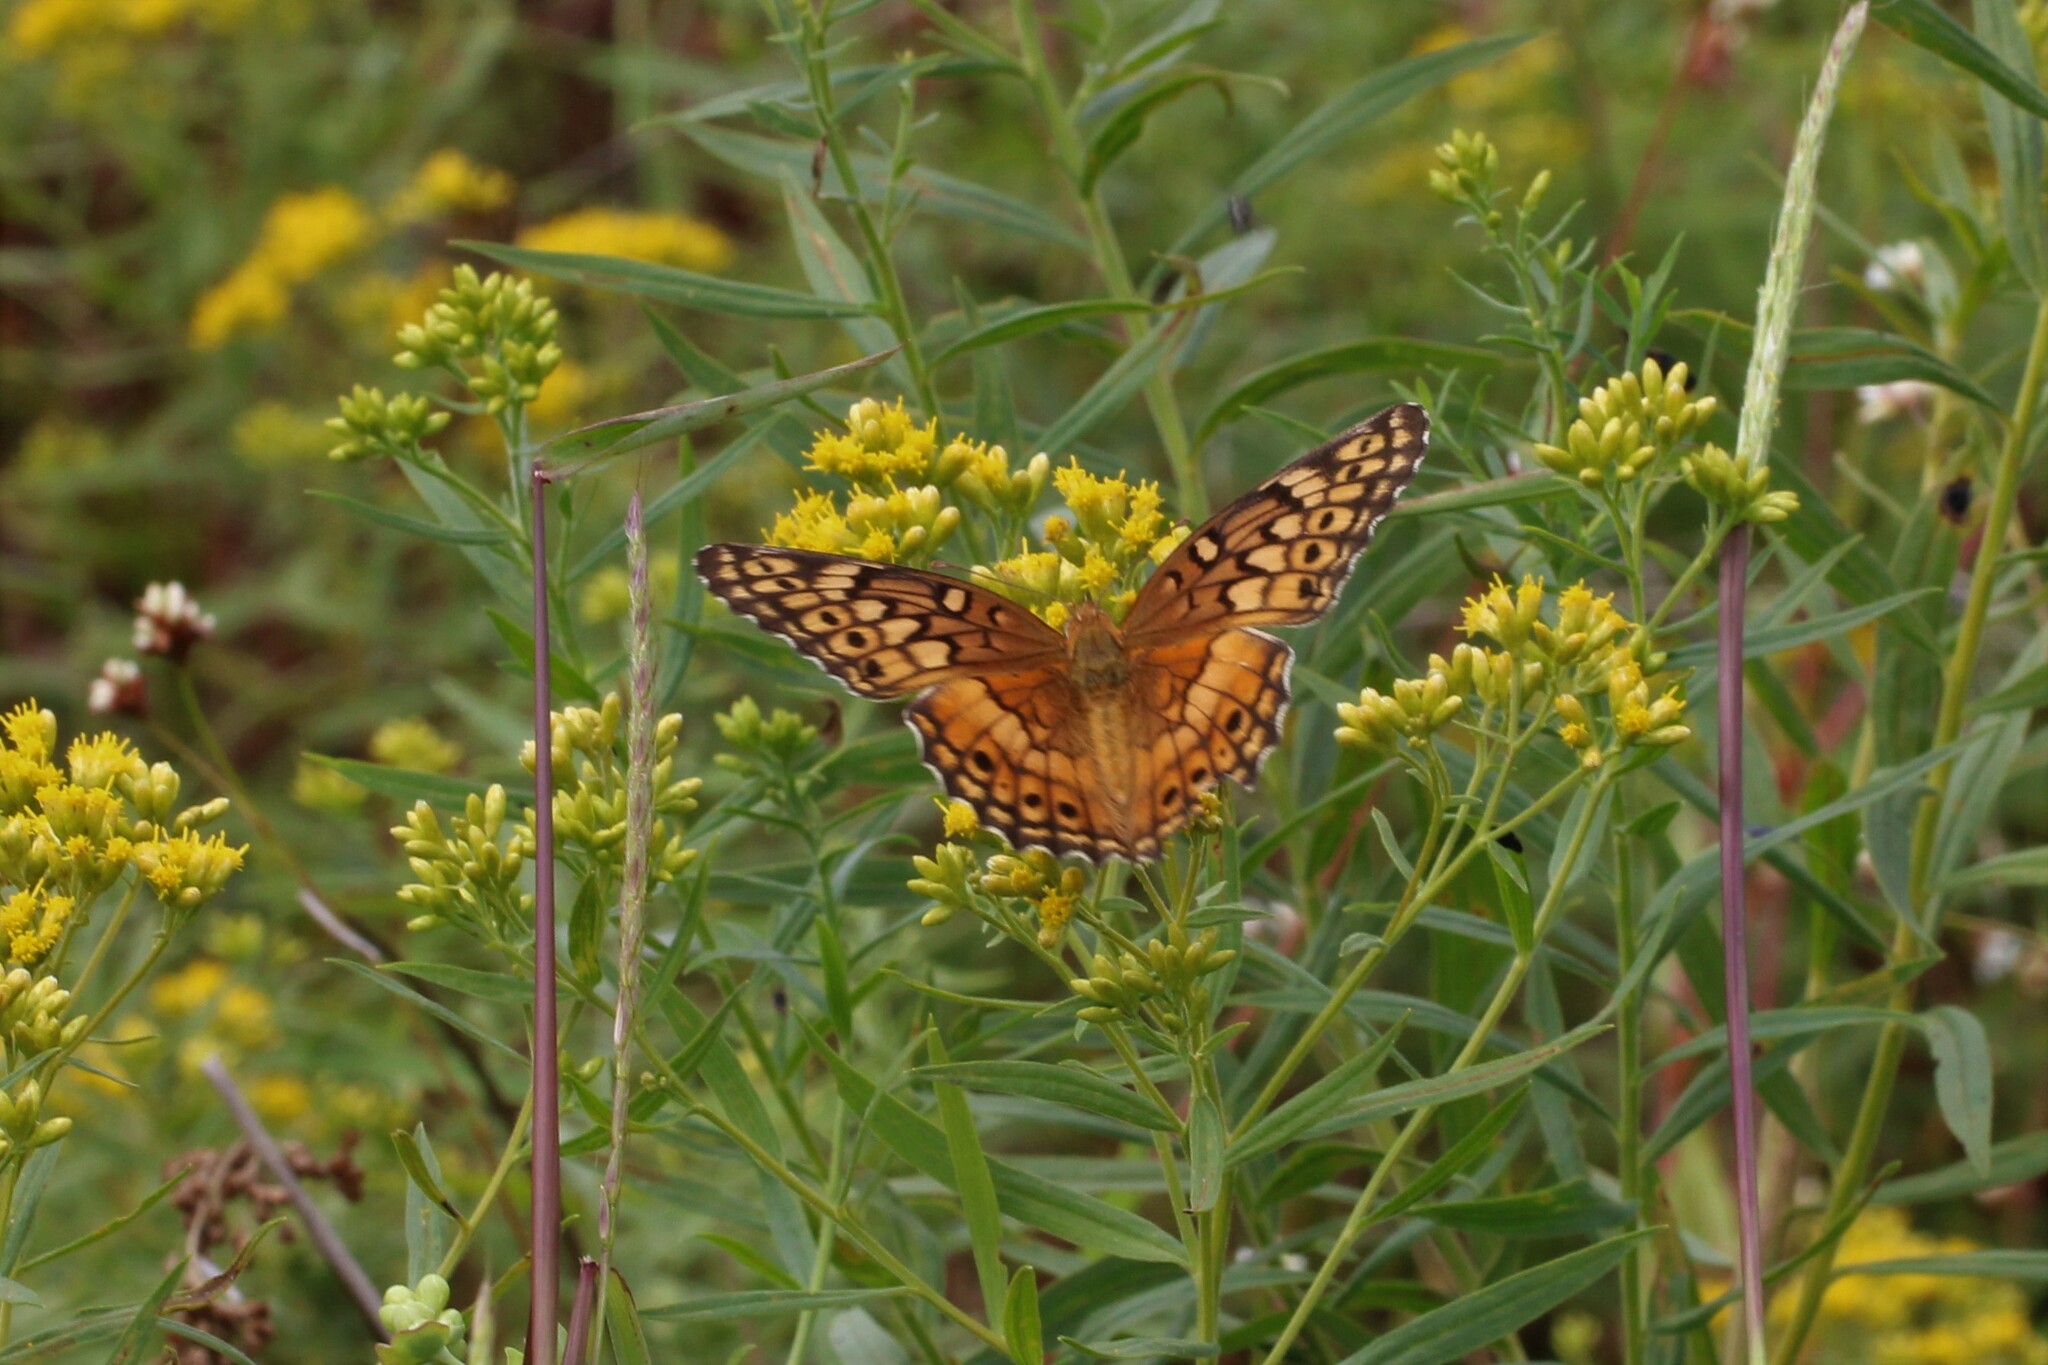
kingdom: Animalia
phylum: Arthropoda
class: Insecta
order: Lepidoptera
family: Nymphalidae
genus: Euptoieta
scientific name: Euptoieta claudia
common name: Variegated fritillary
